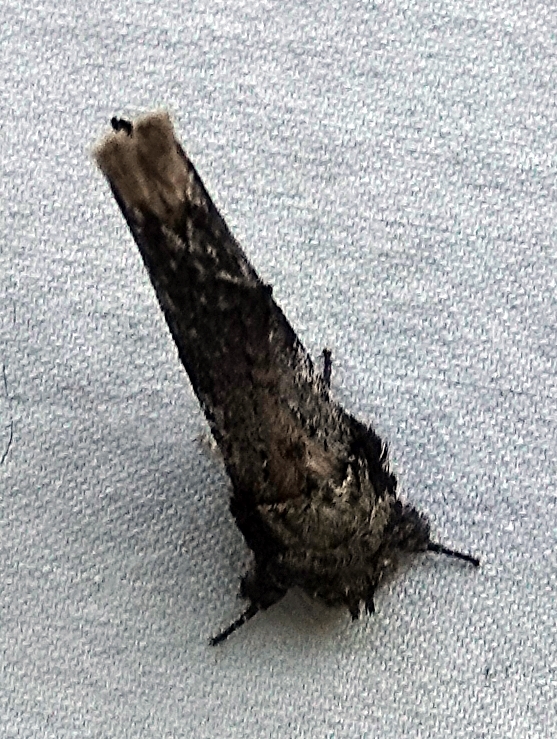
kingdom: Animalia
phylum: Arthropoda
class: Insecta
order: Lepidoptera
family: Notodontidae
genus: Schizura
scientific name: Schizura ipomaeae
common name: Morning-glory prominent
